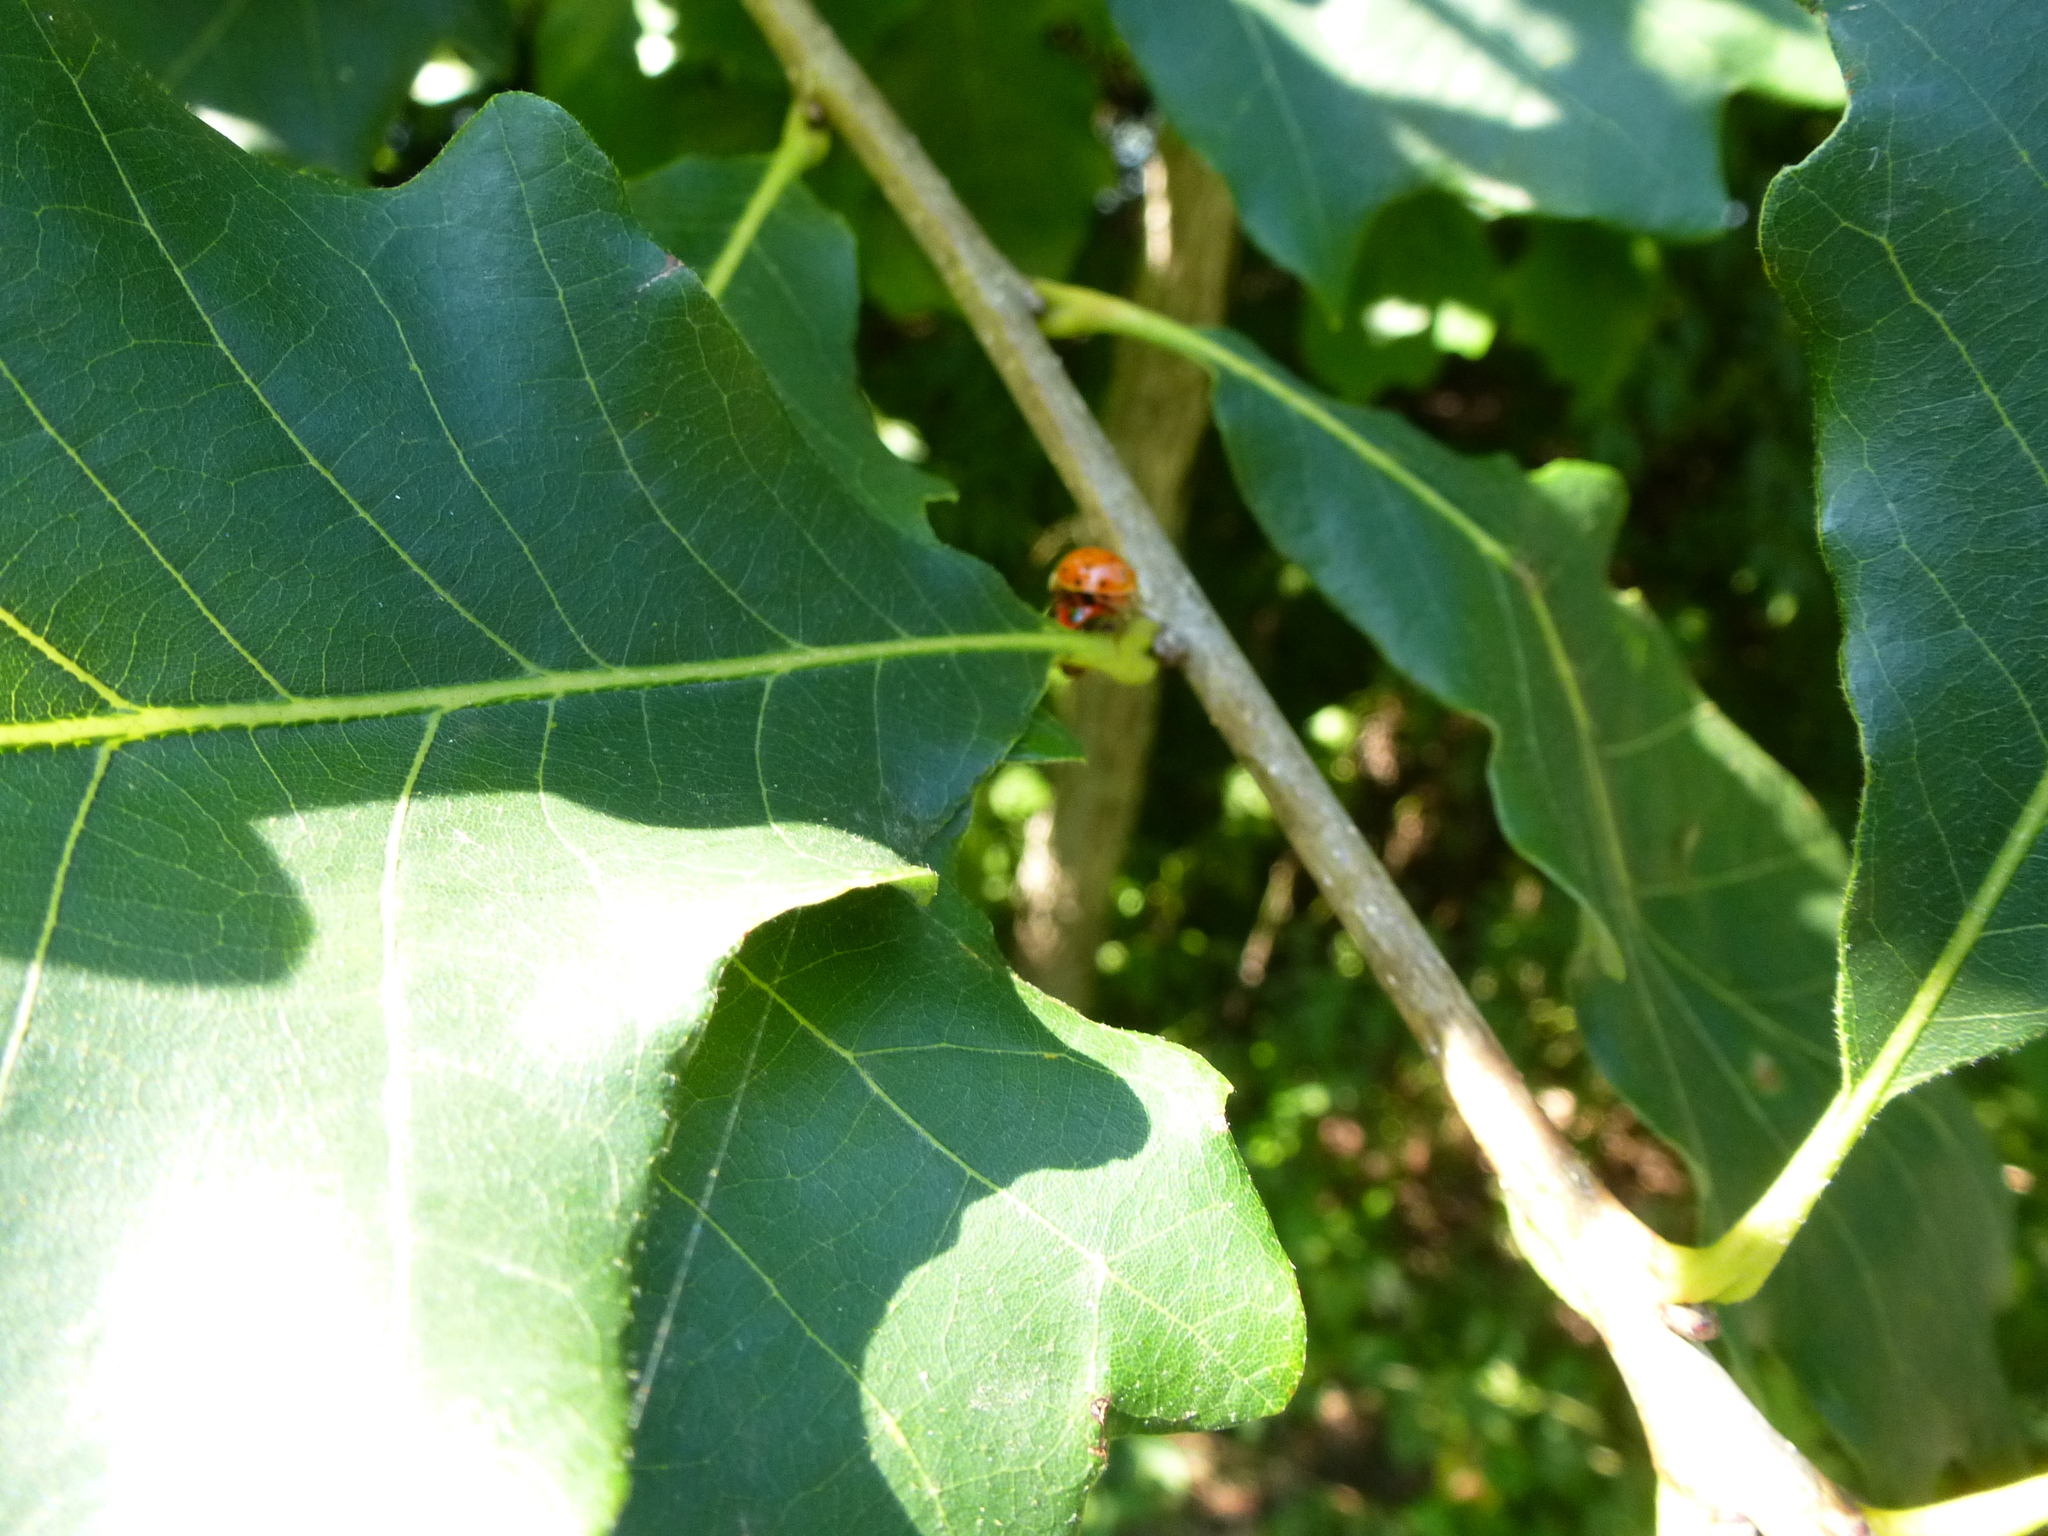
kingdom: Animalia
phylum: Arthropoda
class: Insecta
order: Coleoptera
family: Coccinellidae
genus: Harmonia
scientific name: Harmonia axyridis
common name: Harlequin ladybird
